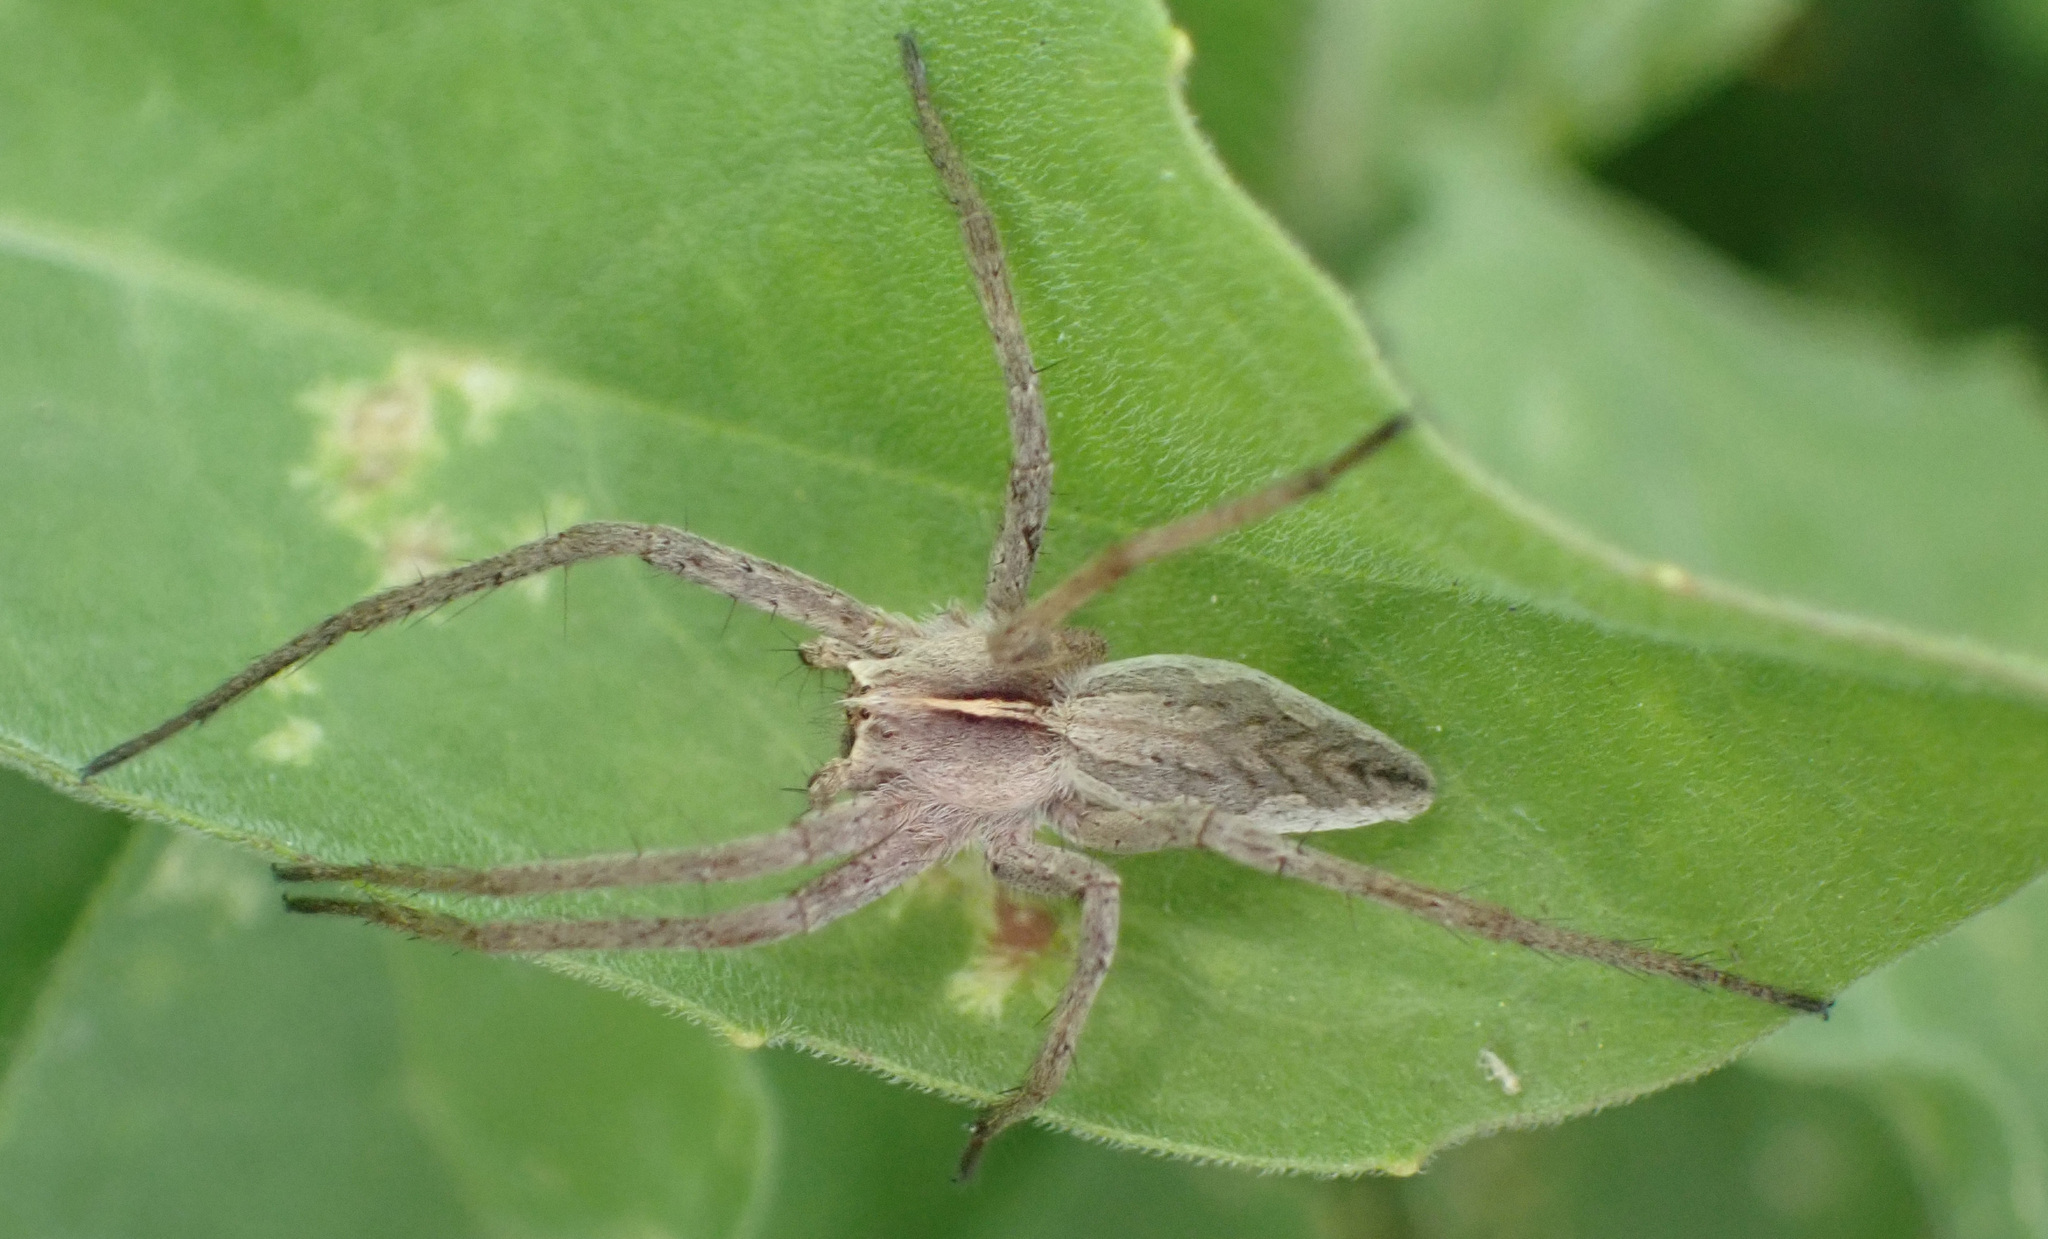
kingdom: Animalia
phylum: Arthropoda
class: Arachnida
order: Araneae
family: Pisauridae
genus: Pisaura
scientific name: Pisaura mirabilis
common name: Tent spider
